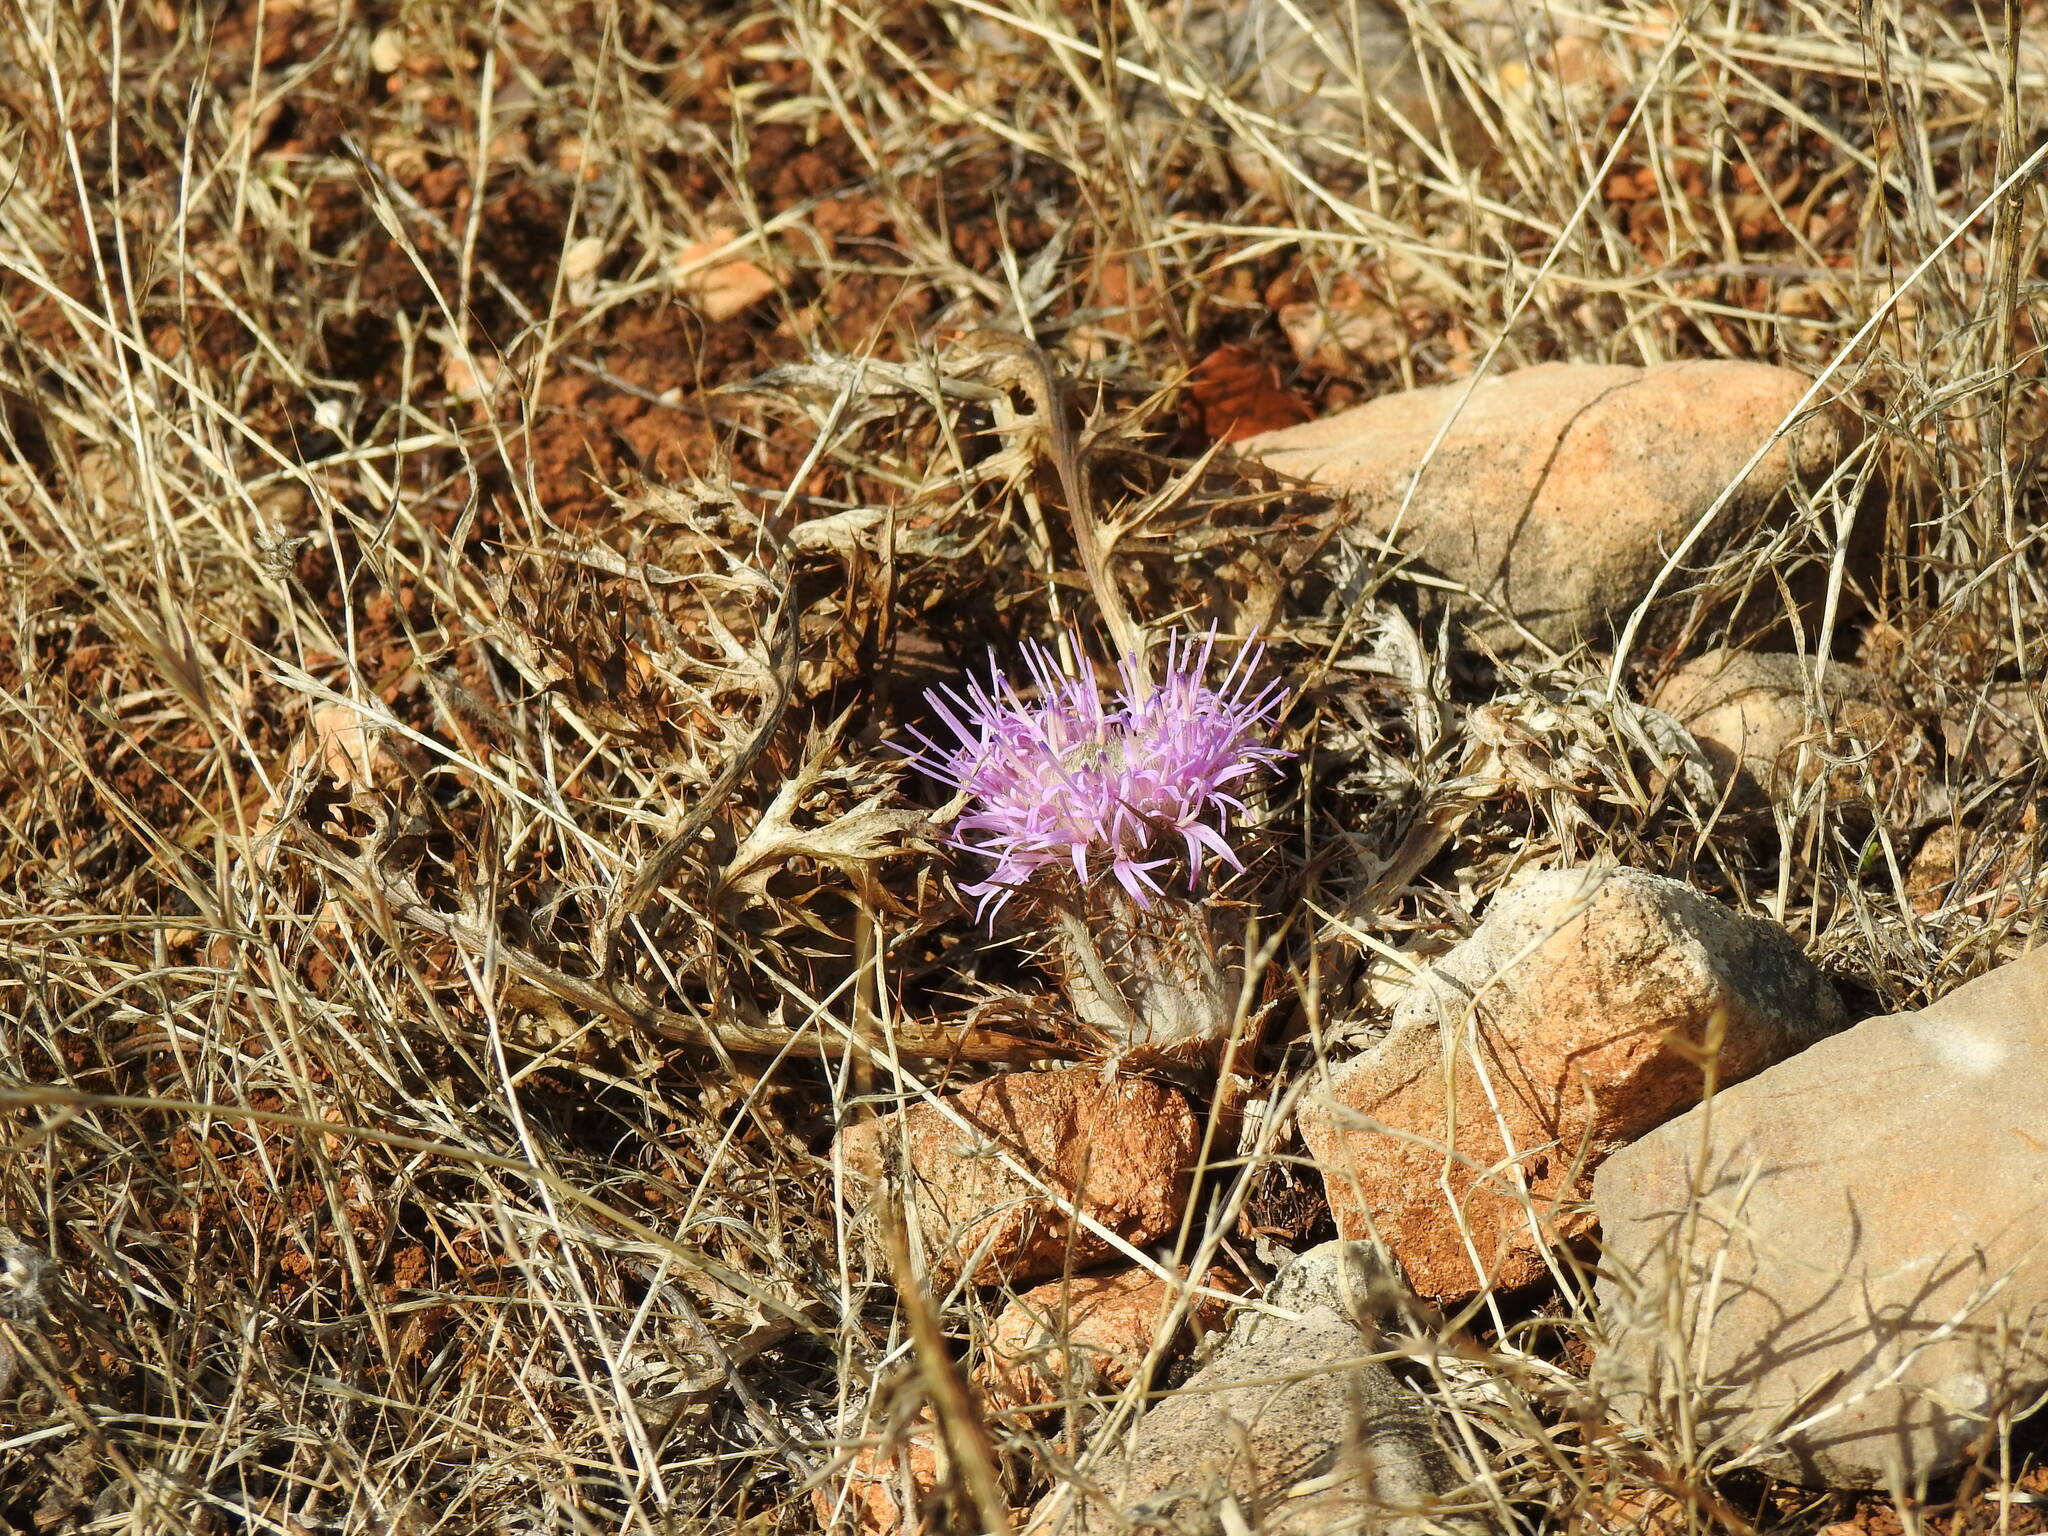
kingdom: Plantae
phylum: Tracheophyta
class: Magnoliopsida
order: Asterales
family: Asteraceae
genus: Chamaeleon
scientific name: Chamaeleon gummifer
